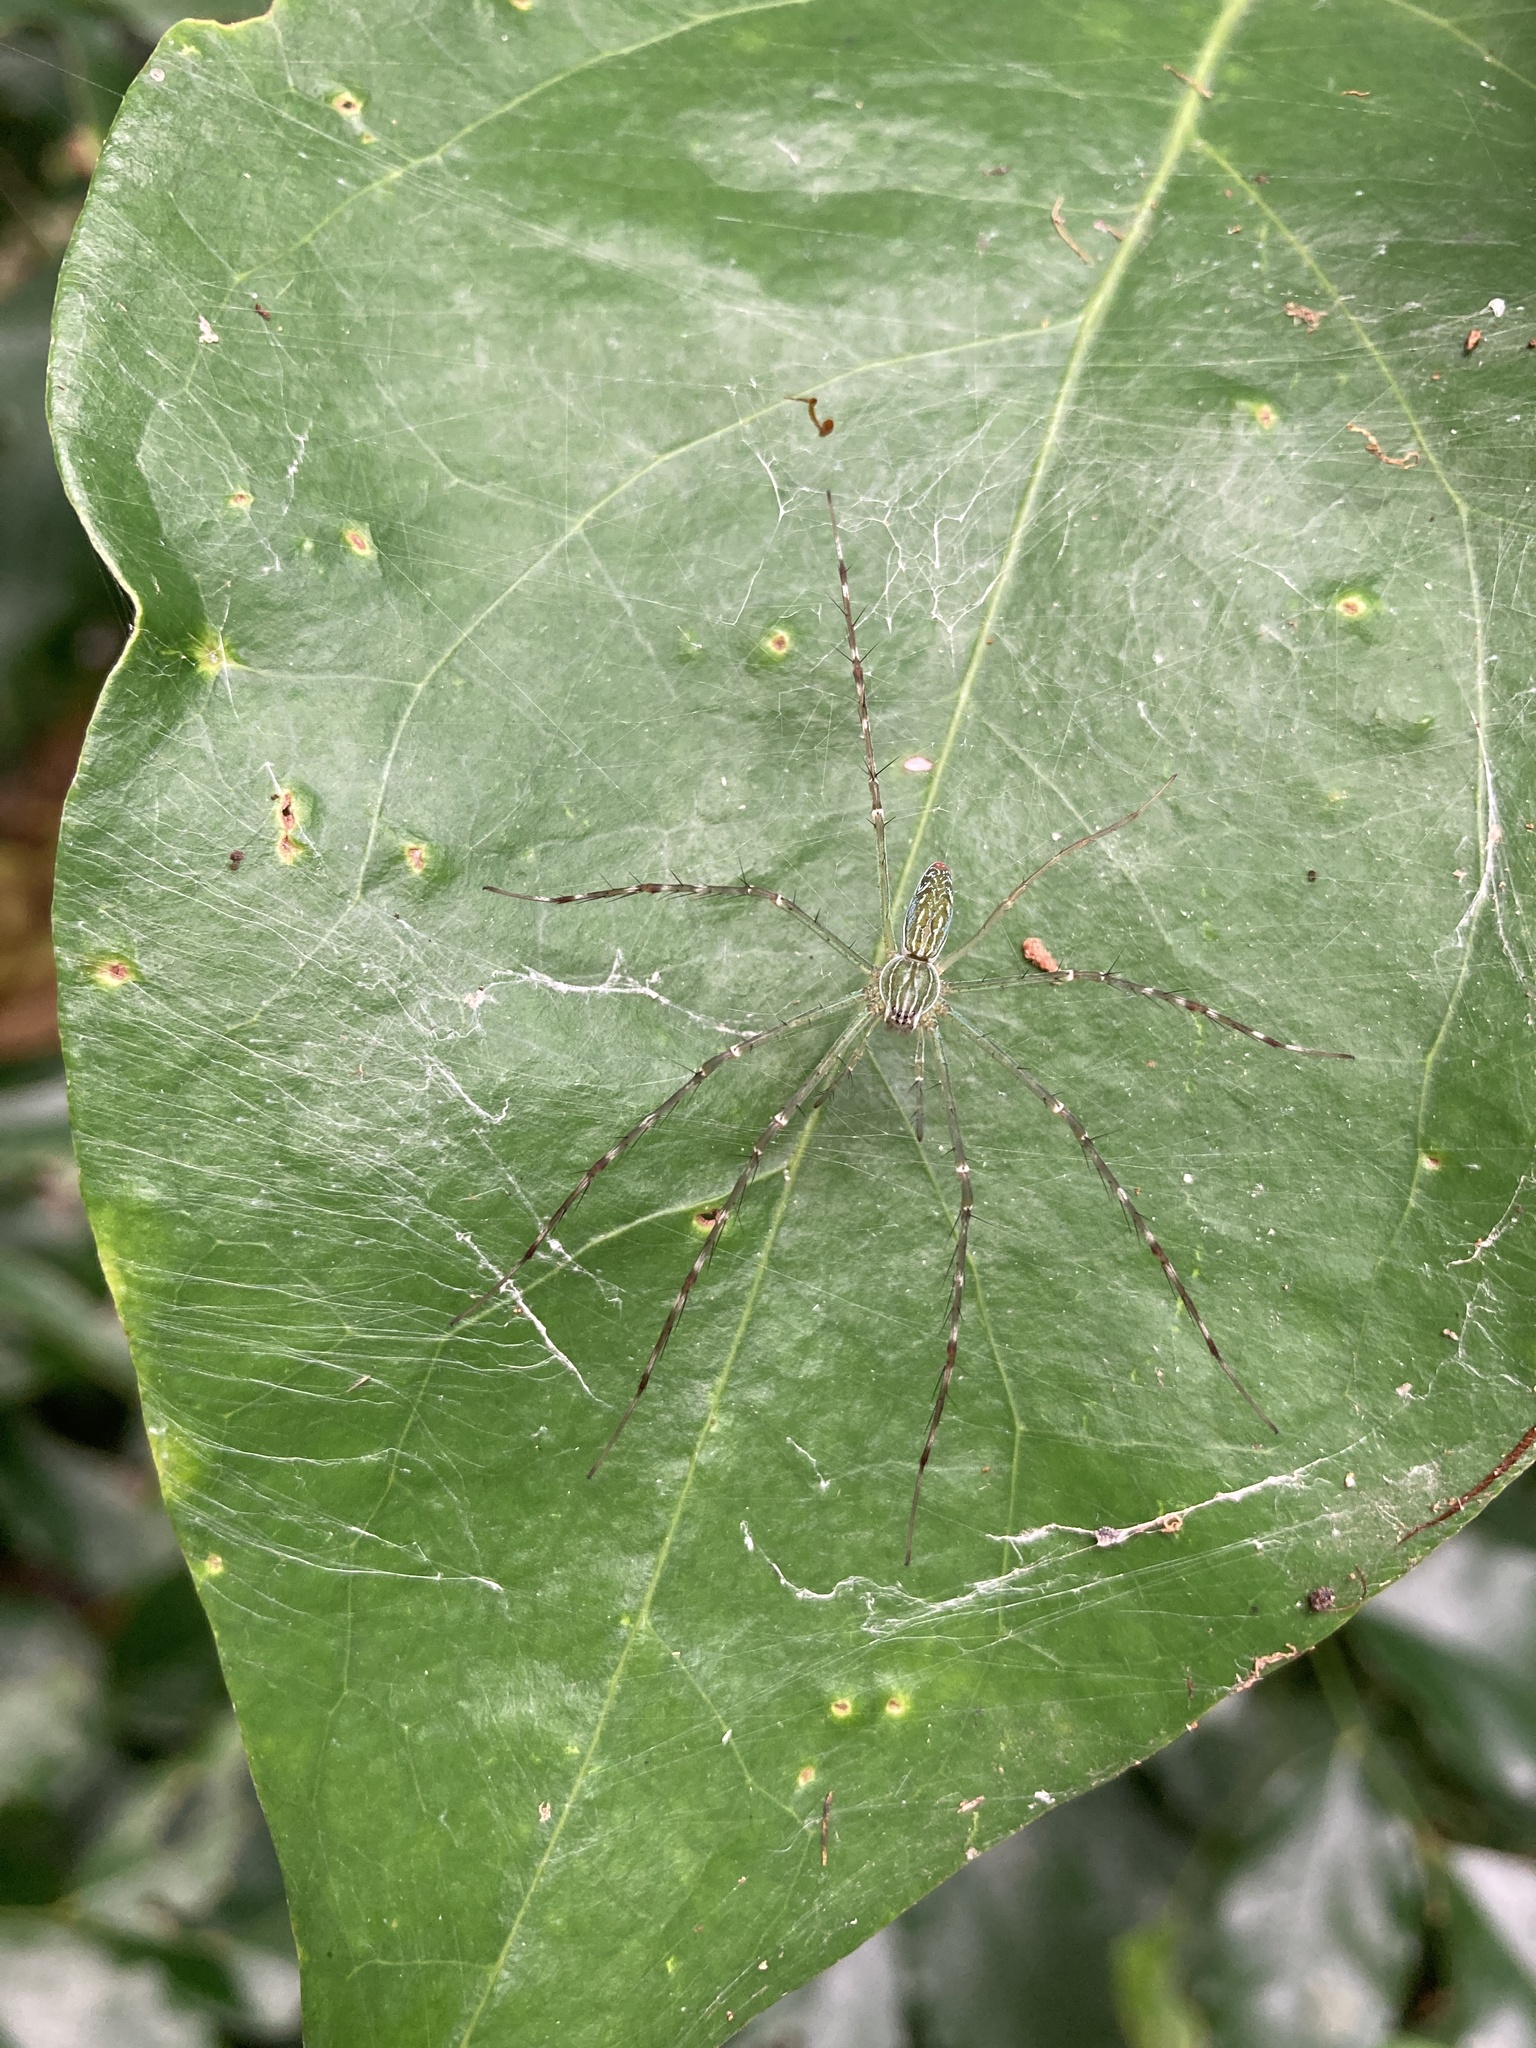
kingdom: Animalia
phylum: Arthropoda
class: Arachnida
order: Araneae
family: Pisauridae
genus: Hygropoda
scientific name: Hygropoda lineata
